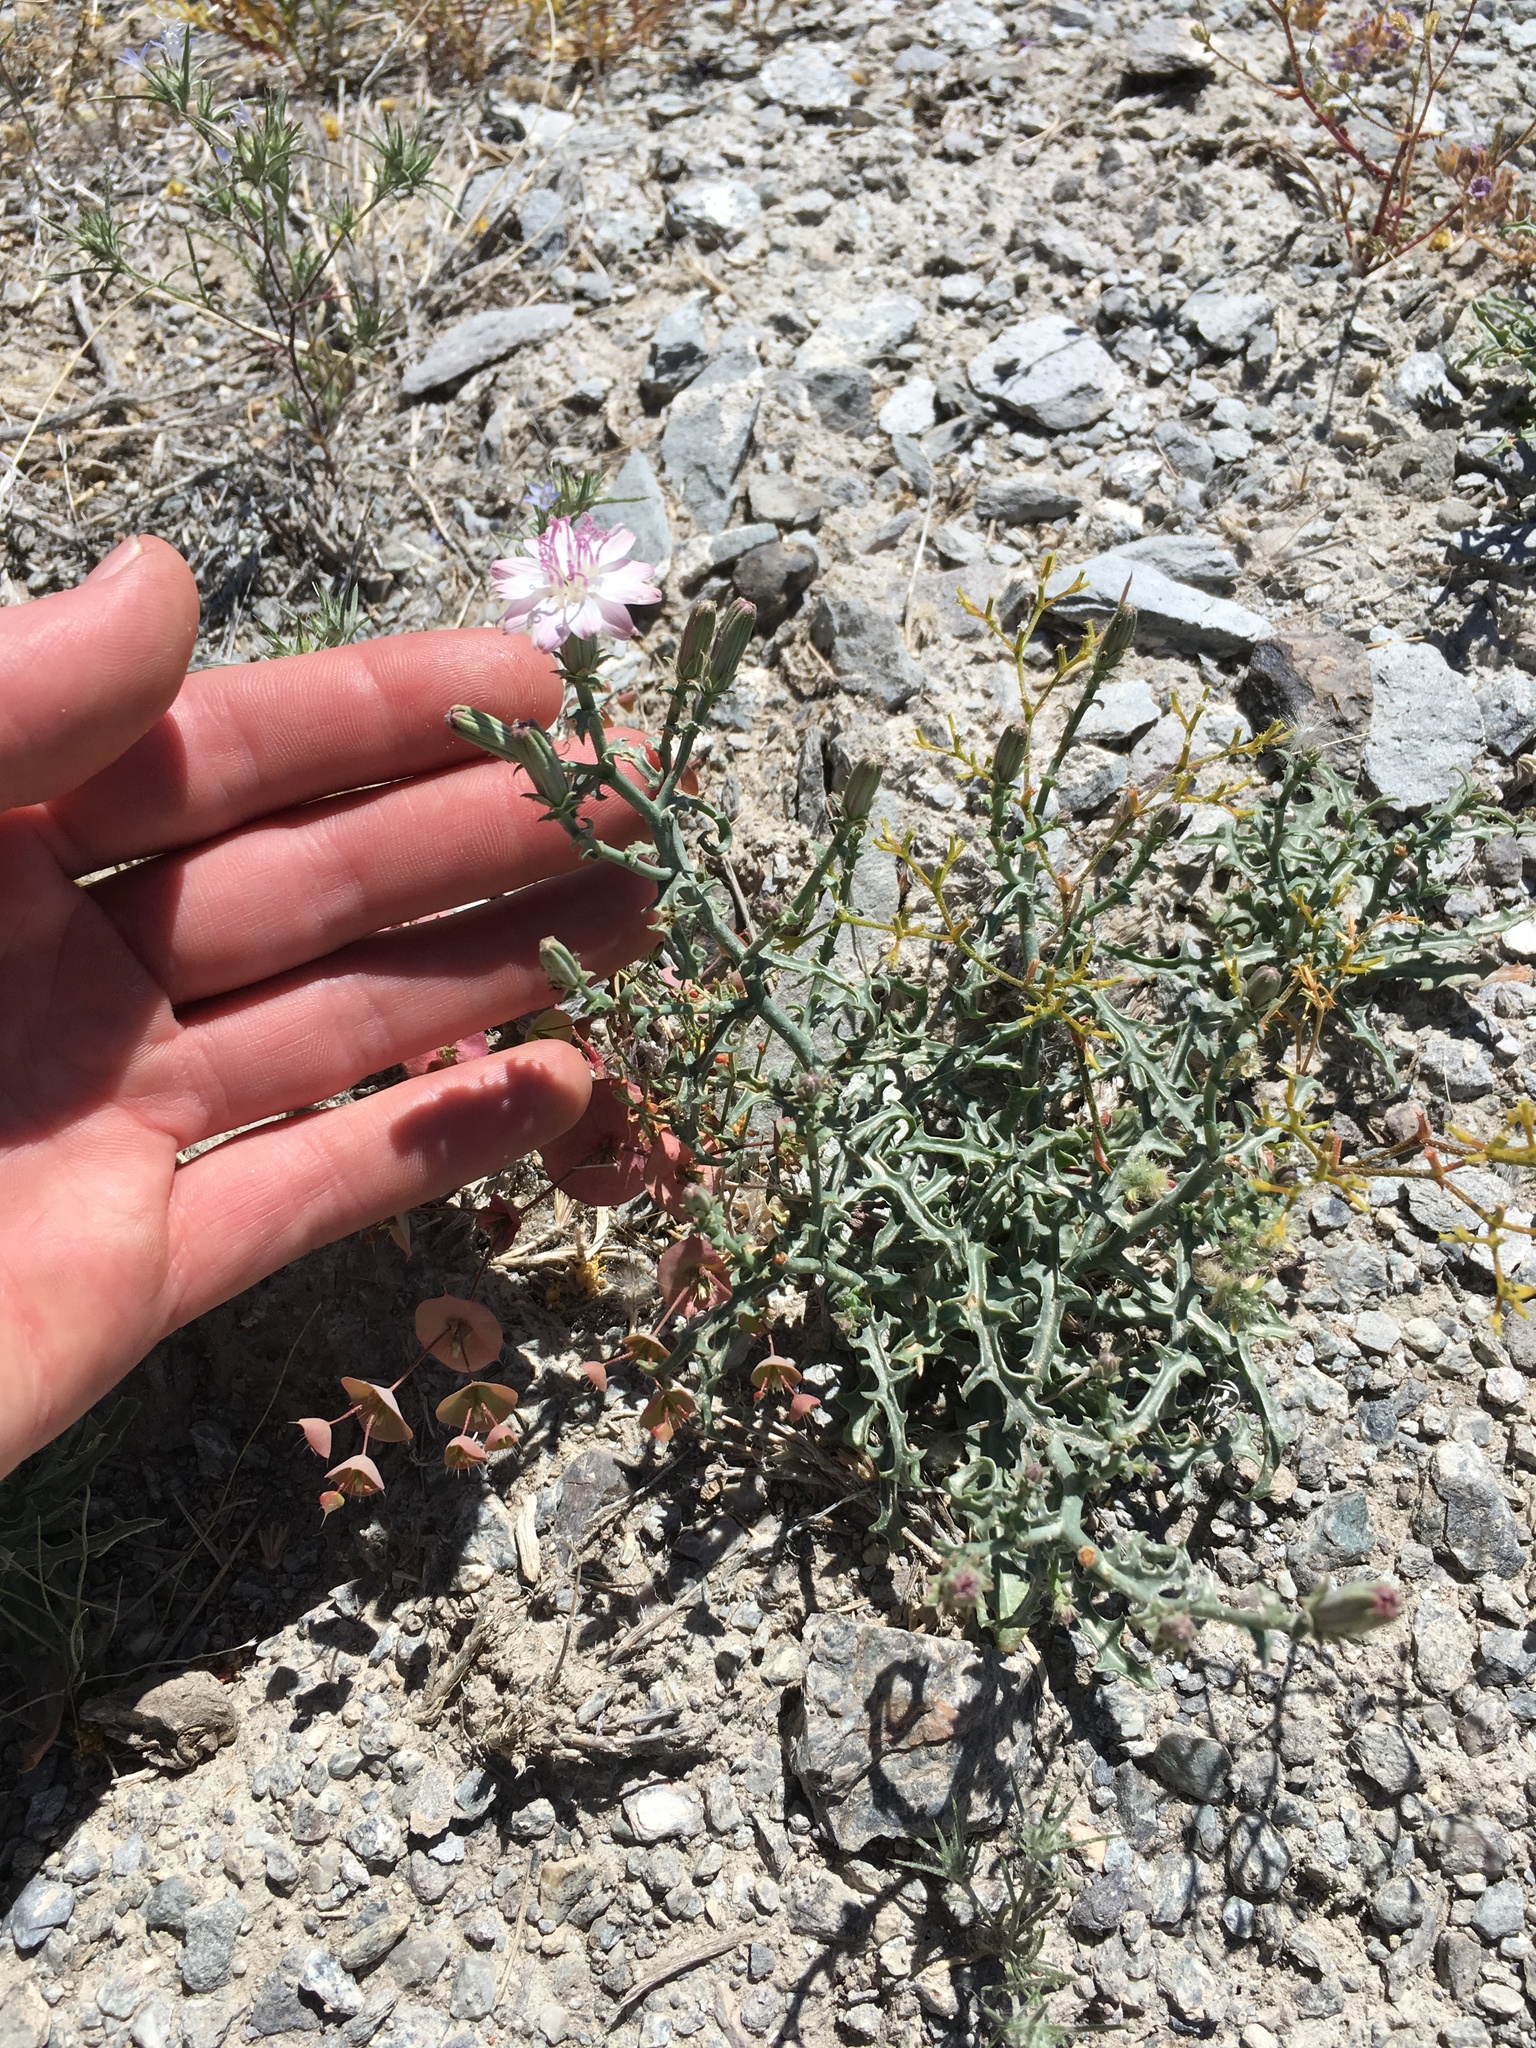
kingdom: Plantae
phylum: Tracheophyta
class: Magnoliopsida
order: Asterales
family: Asteraceae
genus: Stephanomeria
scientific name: Stephanomeria parryi
